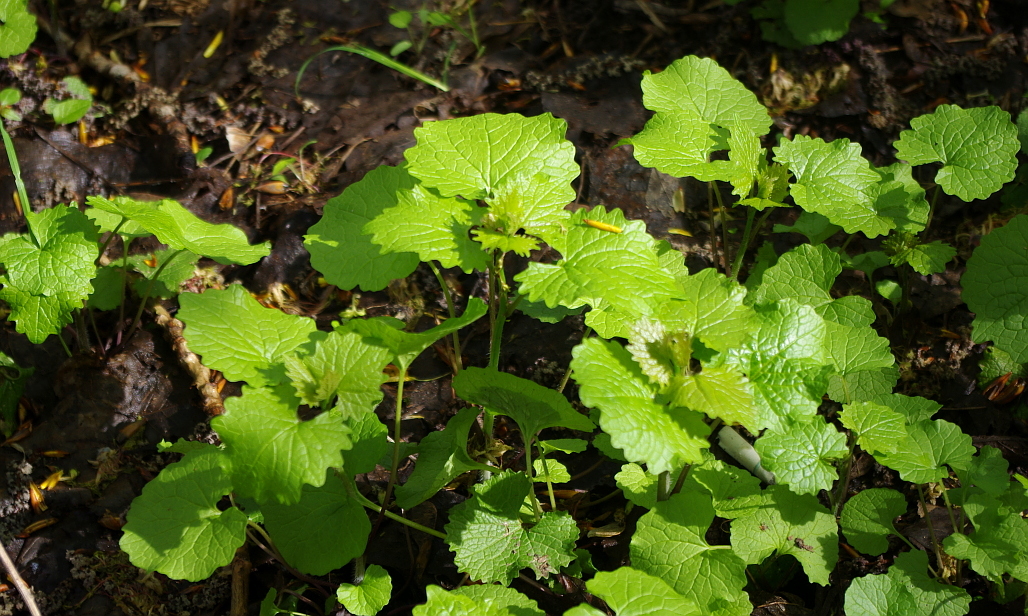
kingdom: Plantae
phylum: Tracheophyta
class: Magnoliopsida
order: Brassicales
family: Brassicaceae
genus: Alliaria
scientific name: Alliaria petiolata
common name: Garlic mustard
